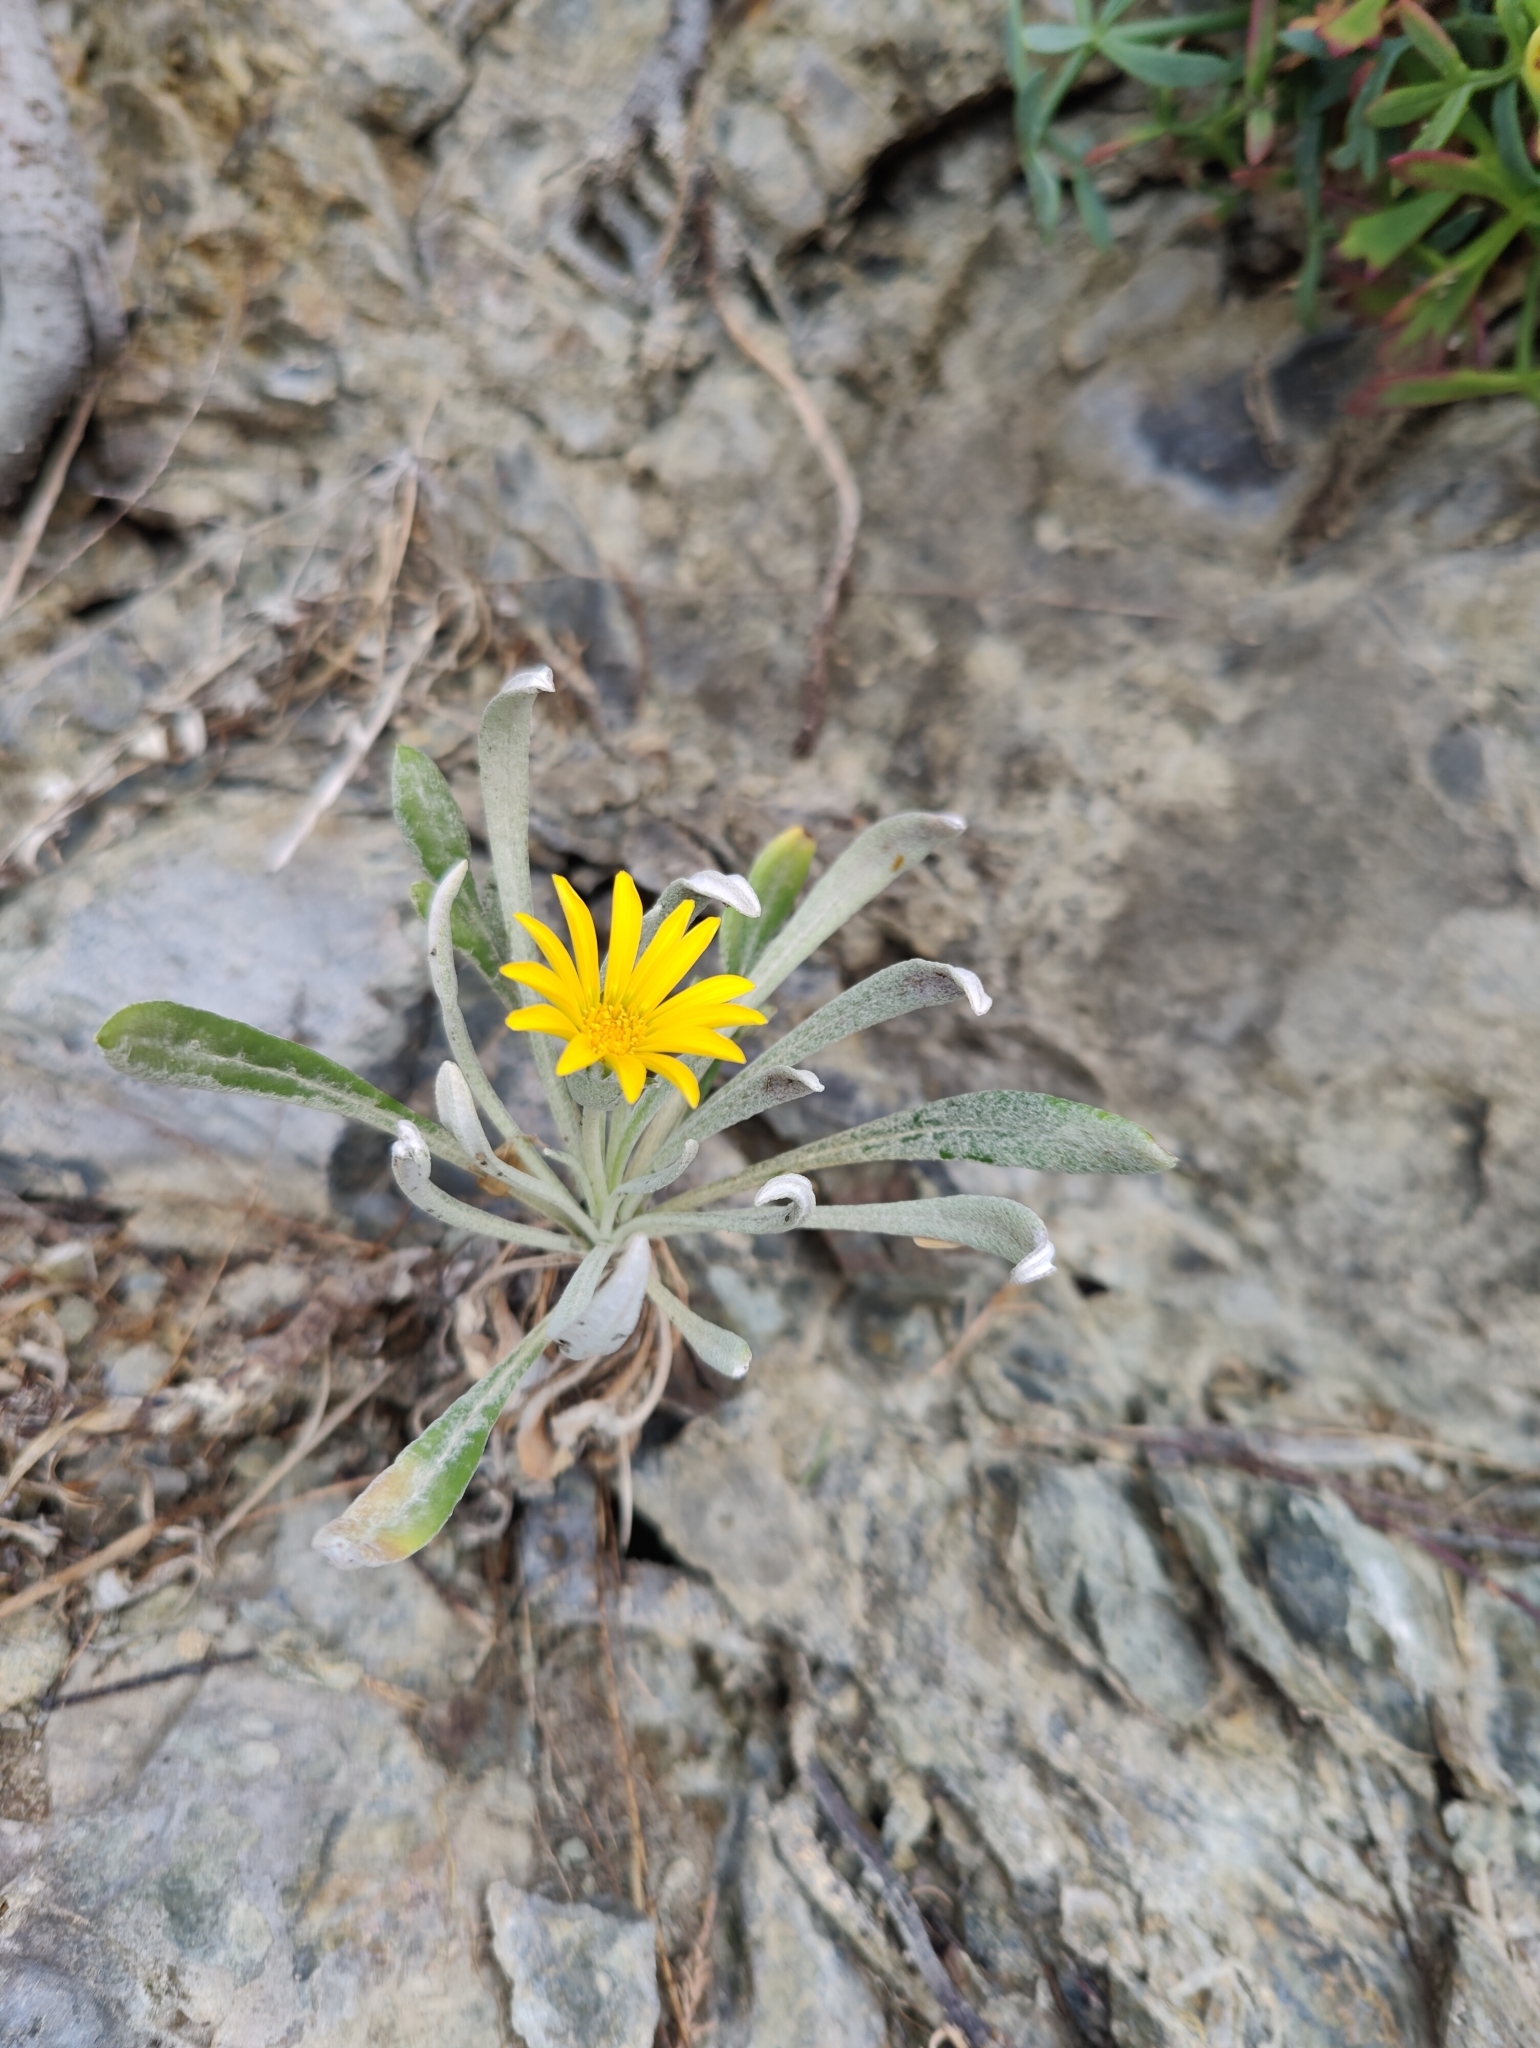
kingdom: Plantae
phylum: Tracheophyta
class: Magnoliopsida
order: Asterales
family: Asteraceae
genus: Gazania
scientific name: Gazania rigens
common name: Treasureflower
